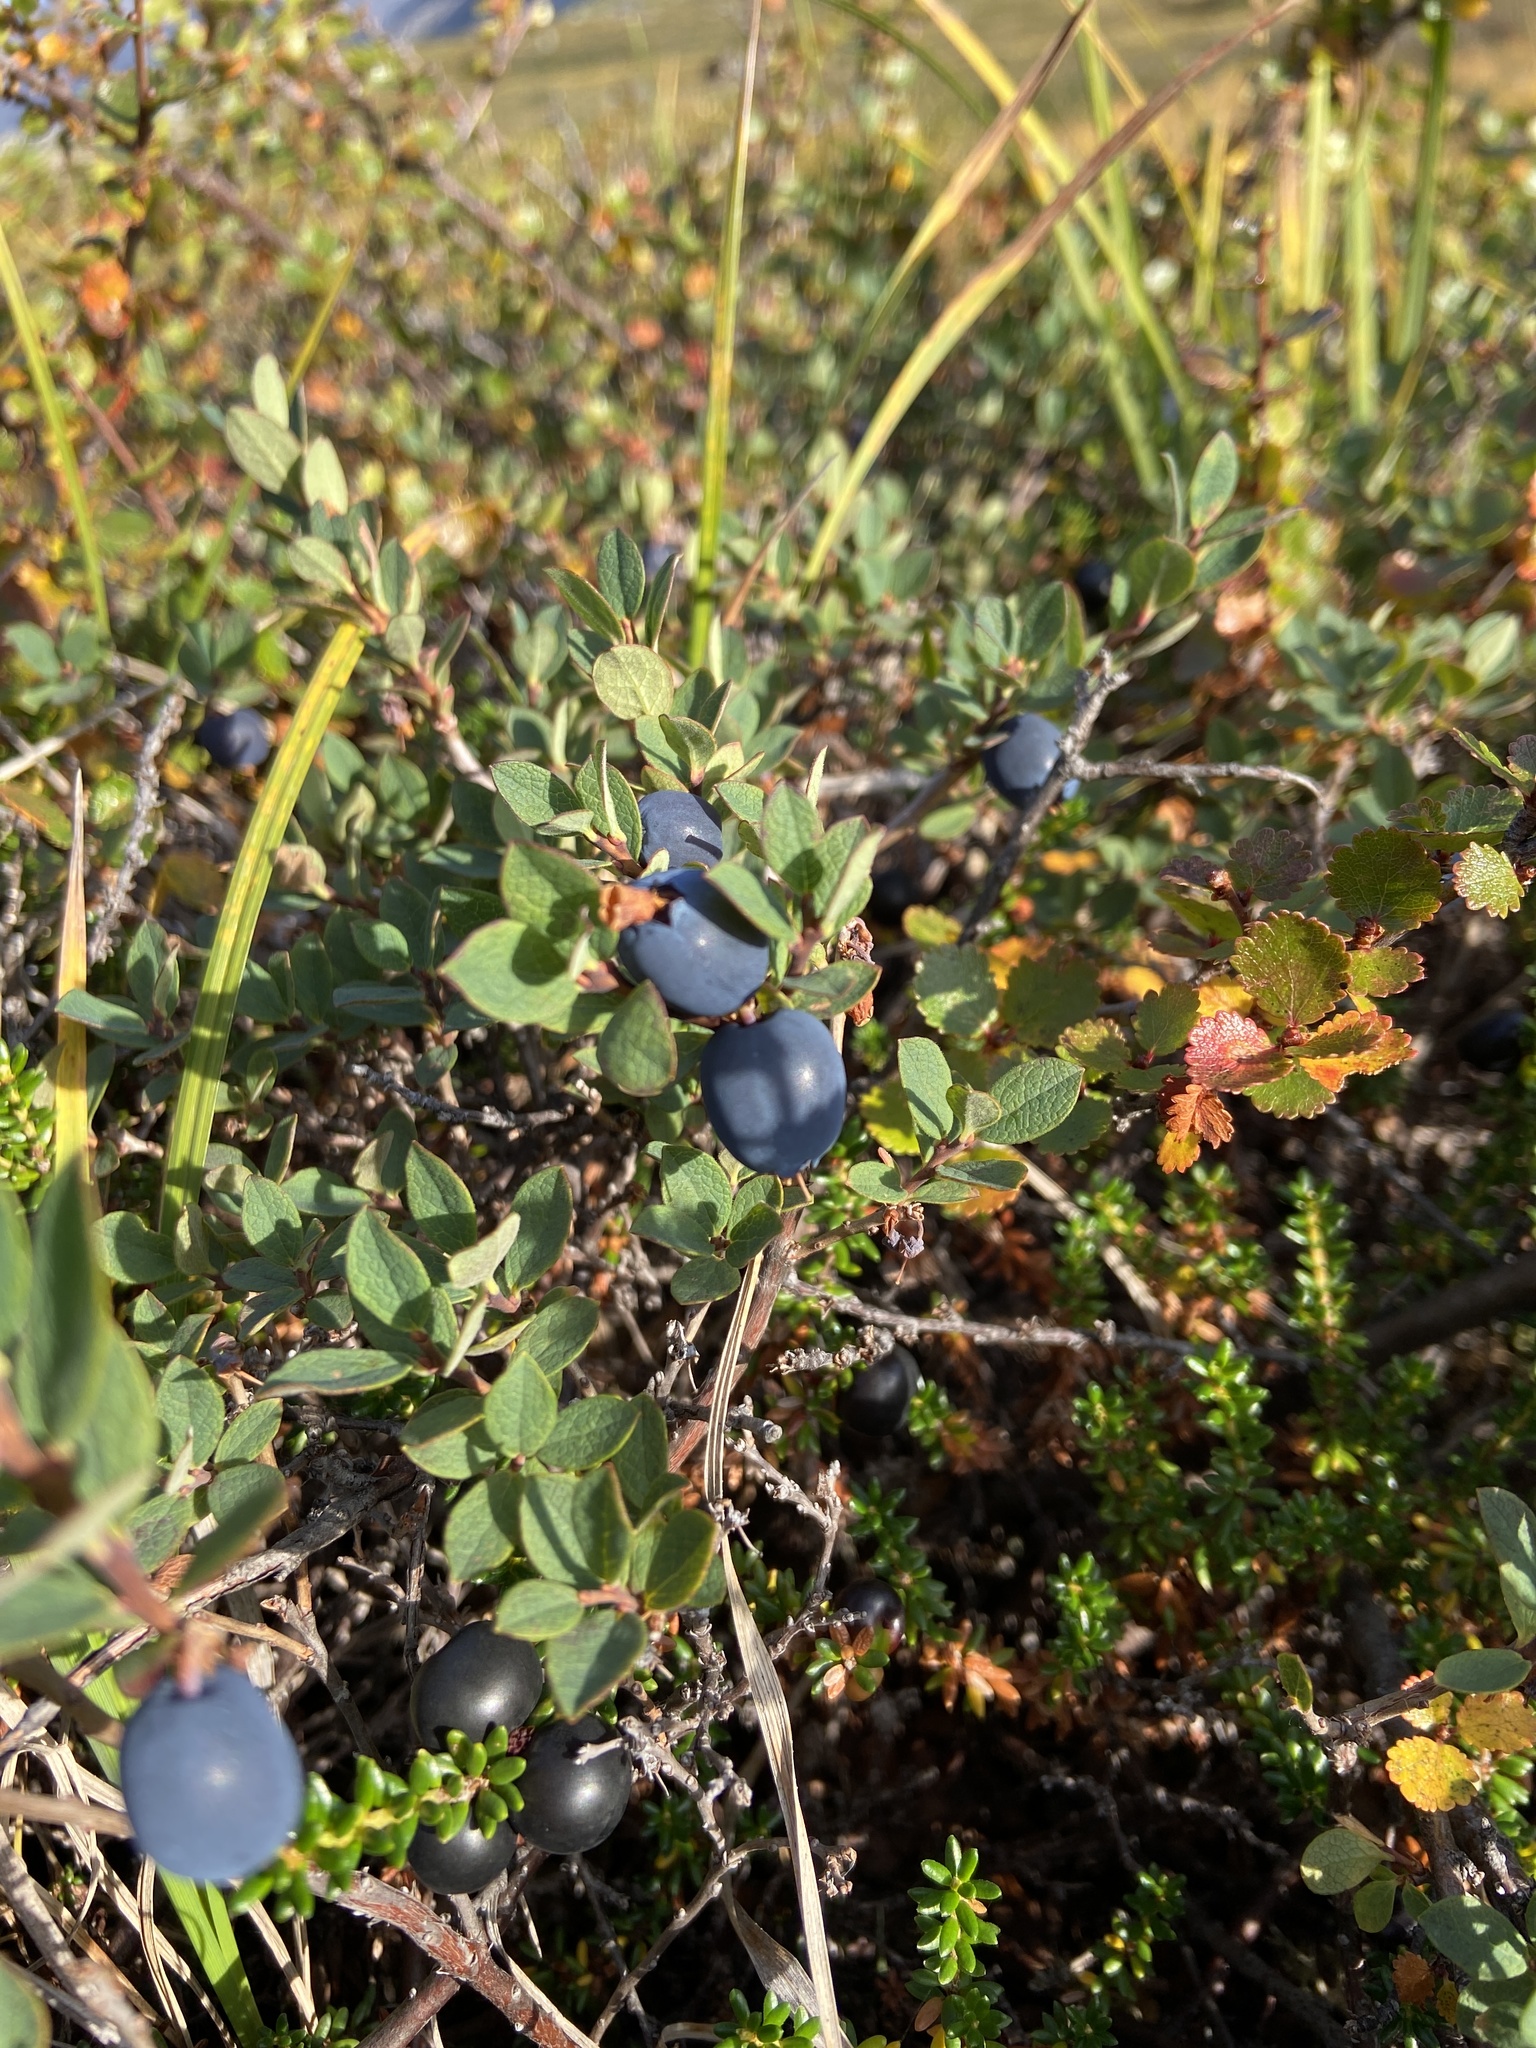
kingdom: Plantae
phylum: Tracheophyta
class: Magnoliopsida
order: Ericales
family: Ericaceae
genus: Vaccinium
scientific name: Vaccinium uliginosum
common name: Bog bilberry
